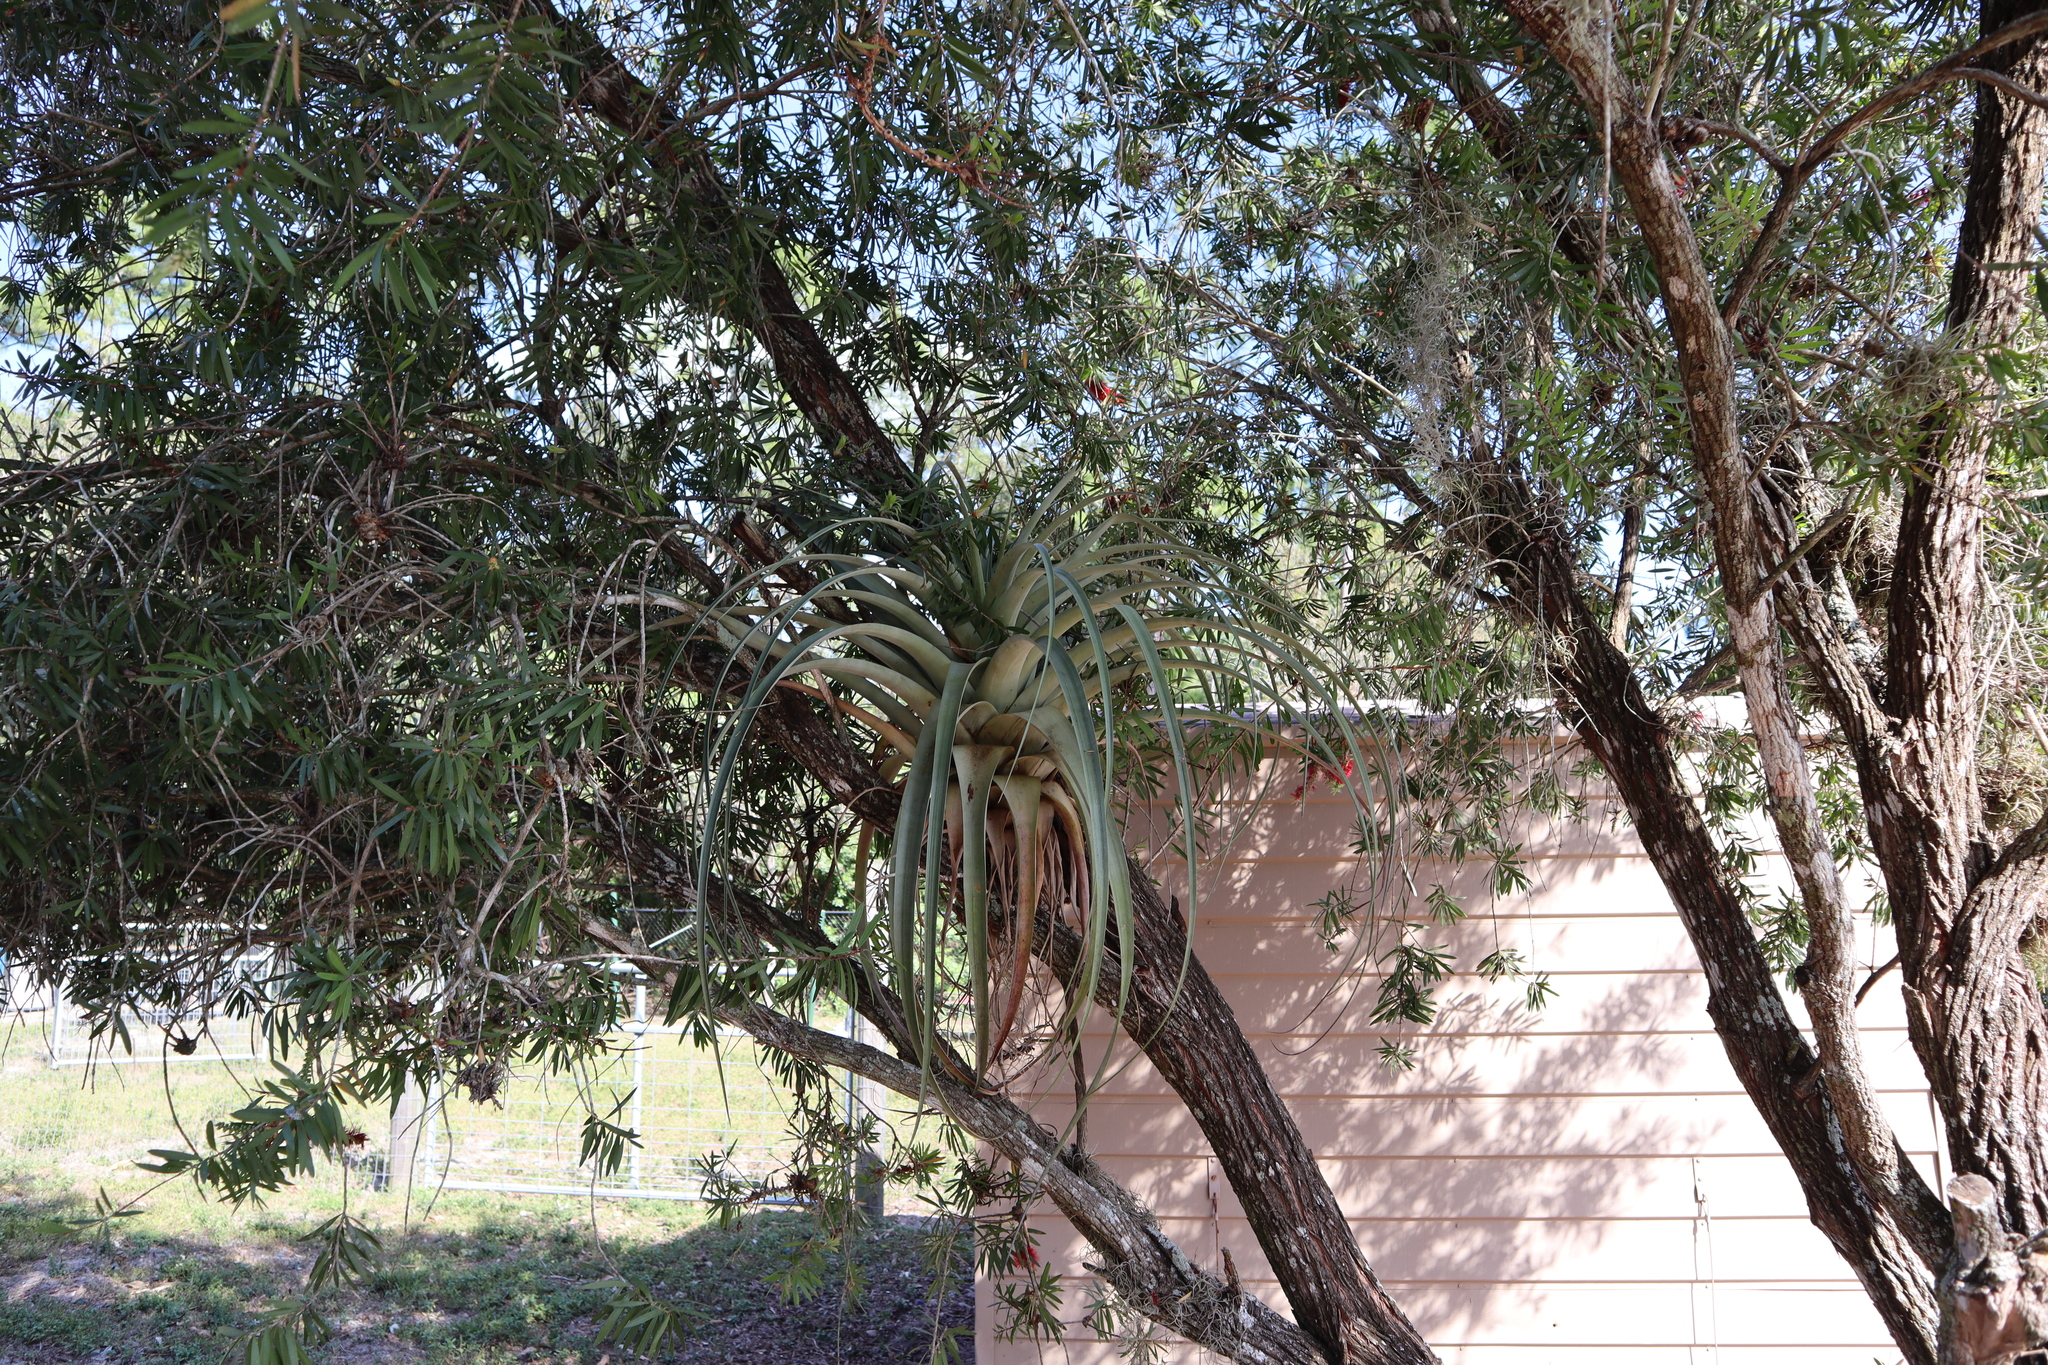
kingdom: Plantae
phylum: Tracheophyta
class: Liliopsida
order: Poales
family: Bromeliaceae
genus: Tillandsia
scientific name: Tillandsia utriculata
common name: Wild pine
